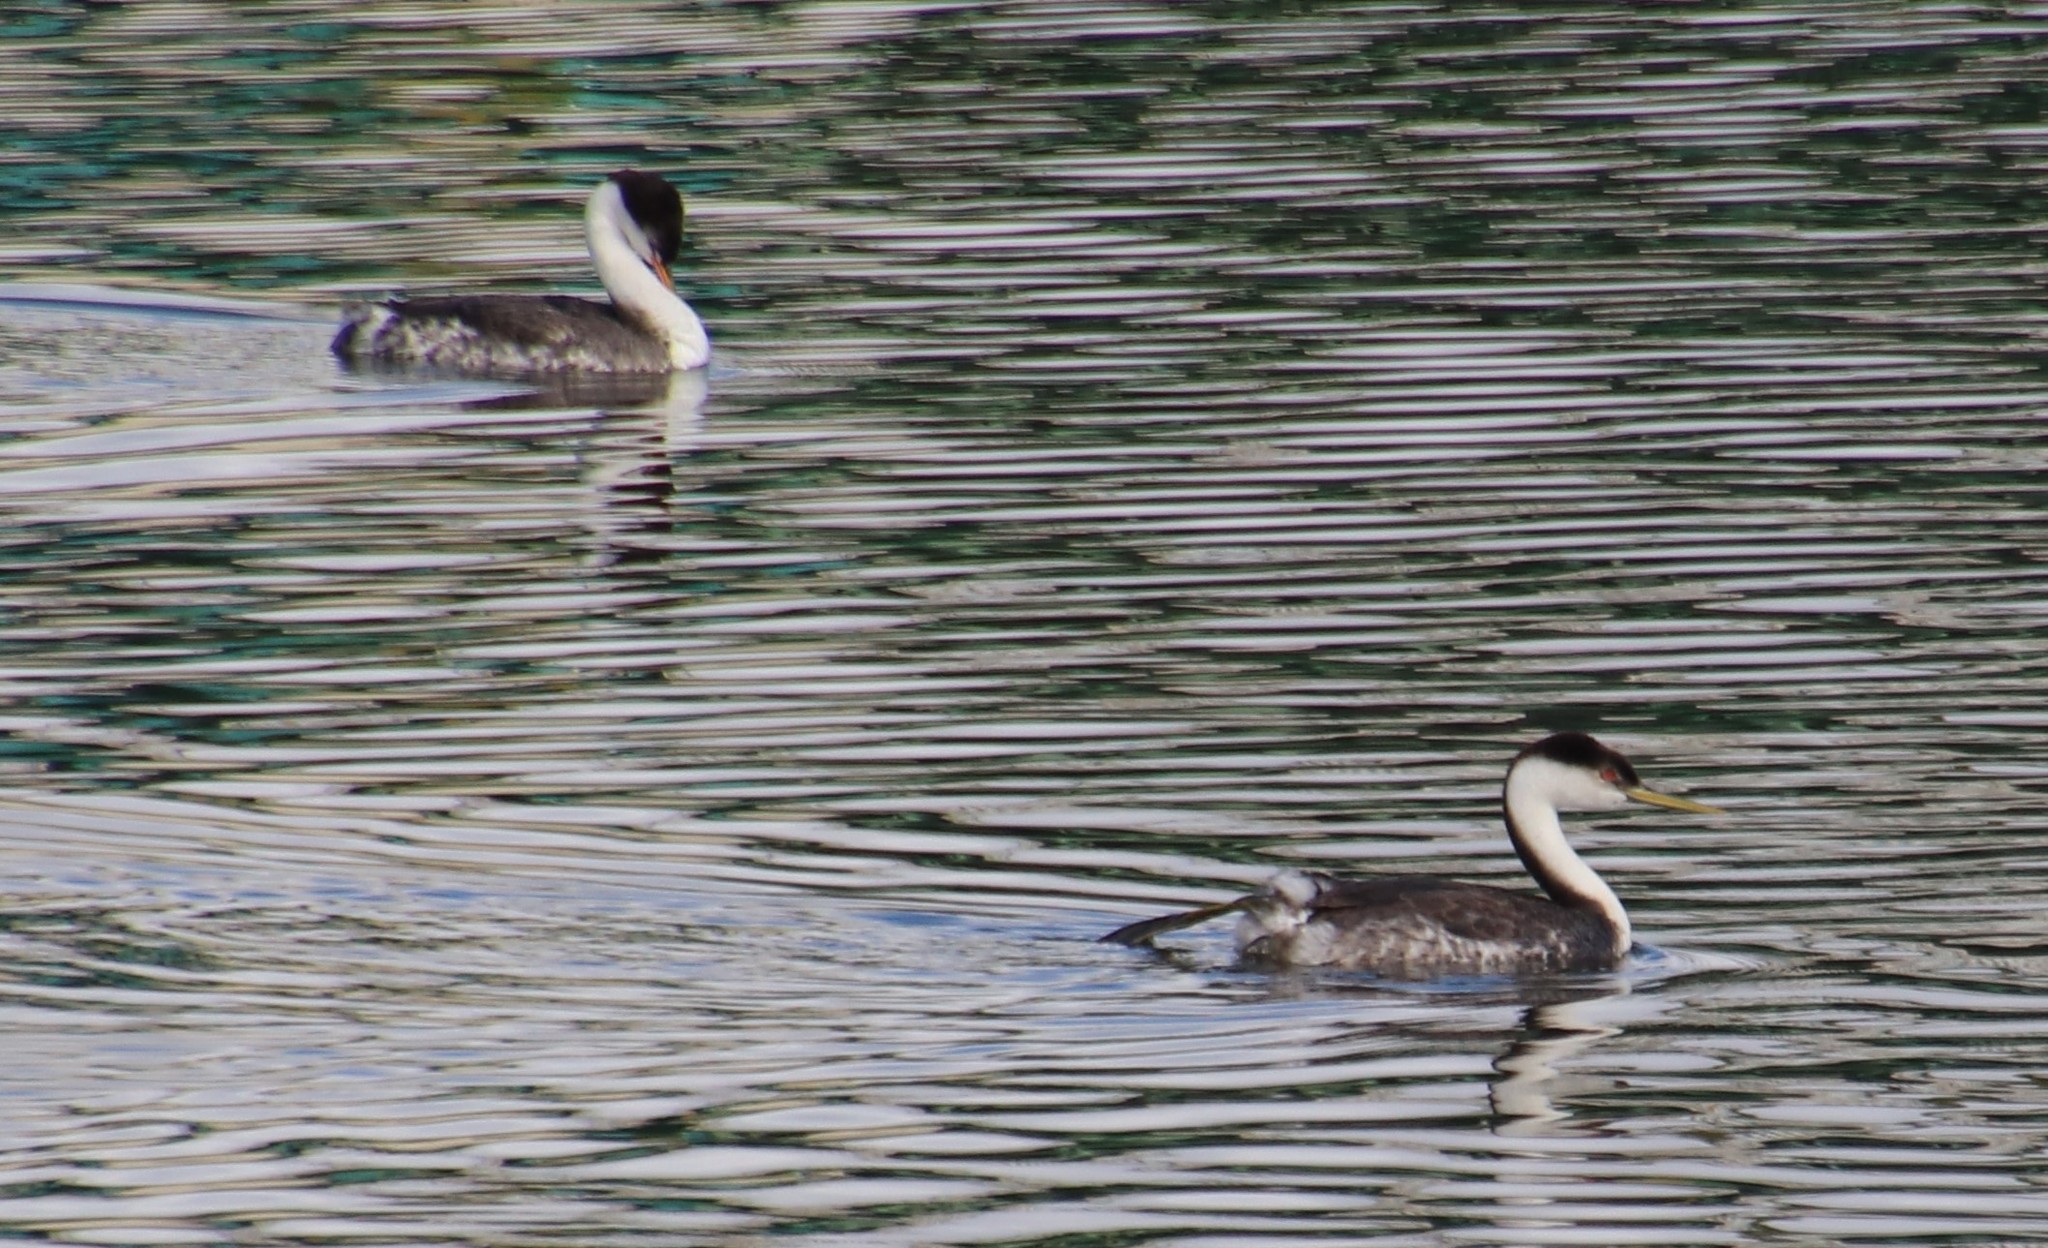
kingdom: Animalia
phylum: Chordata
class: Aves
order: Podicipediformes
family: Podicipedidae
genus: Aechmophorus
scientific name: Aechmophorus occidentalis
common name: Western grebe
